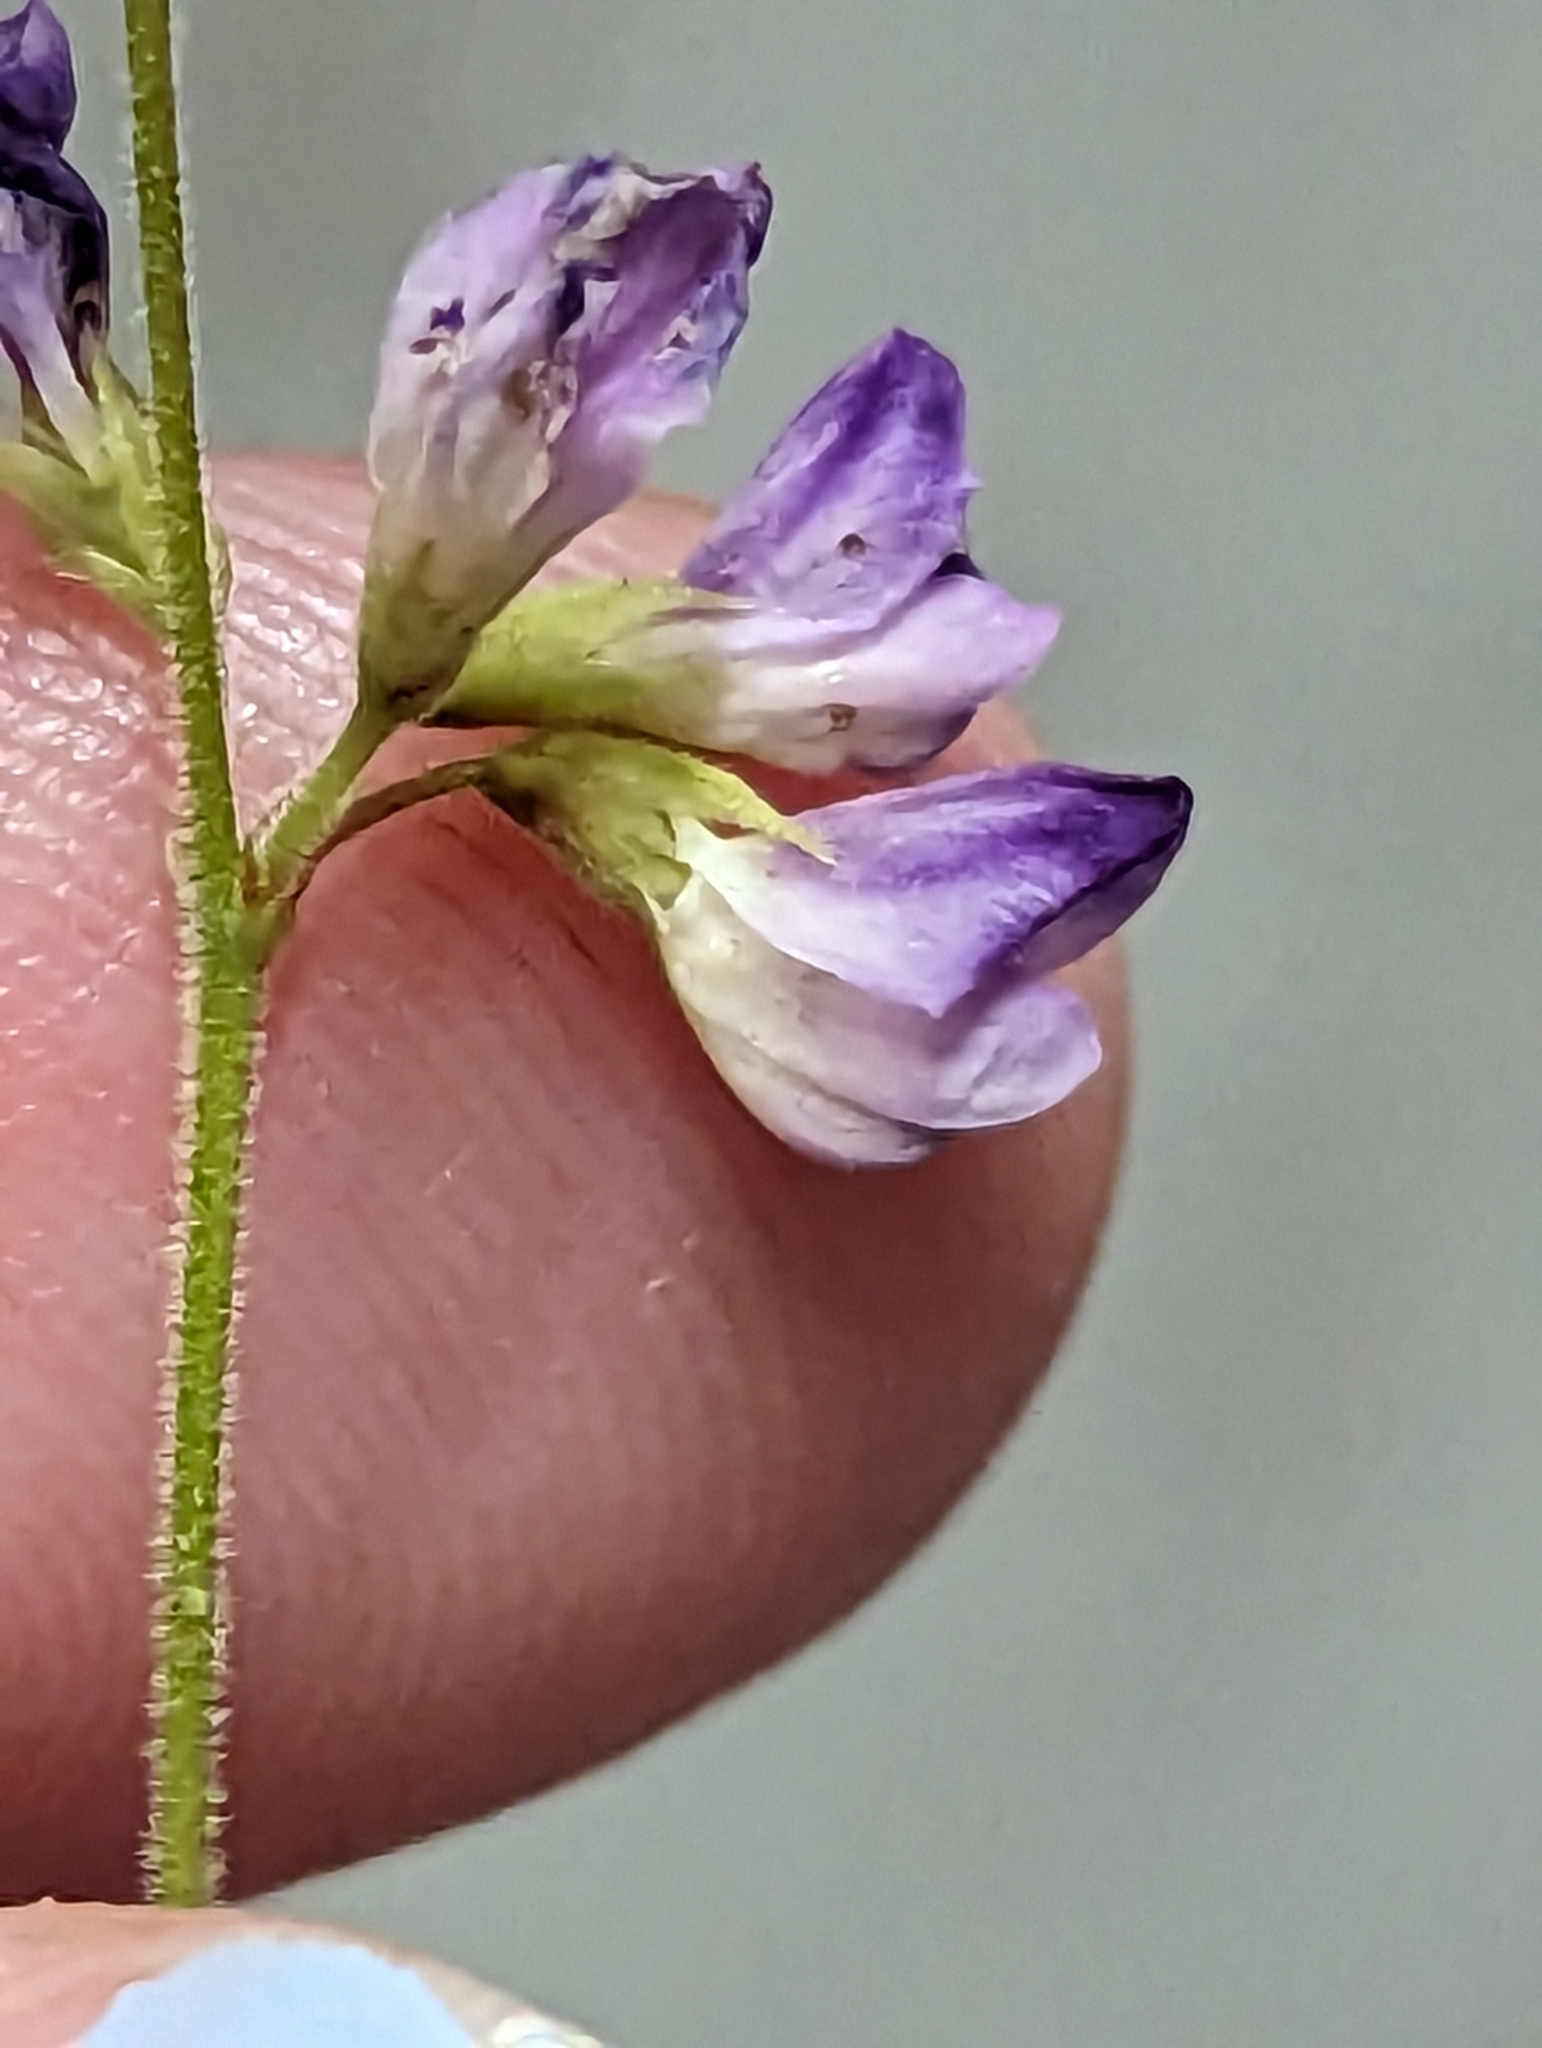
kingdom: Plantae
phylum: Tracheophyta
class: Magnoliopsida
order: Fabales
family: Fabaceae
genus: Lespedeza
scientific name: Lespedeza procumbens
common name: Downy trailing bush-clover
